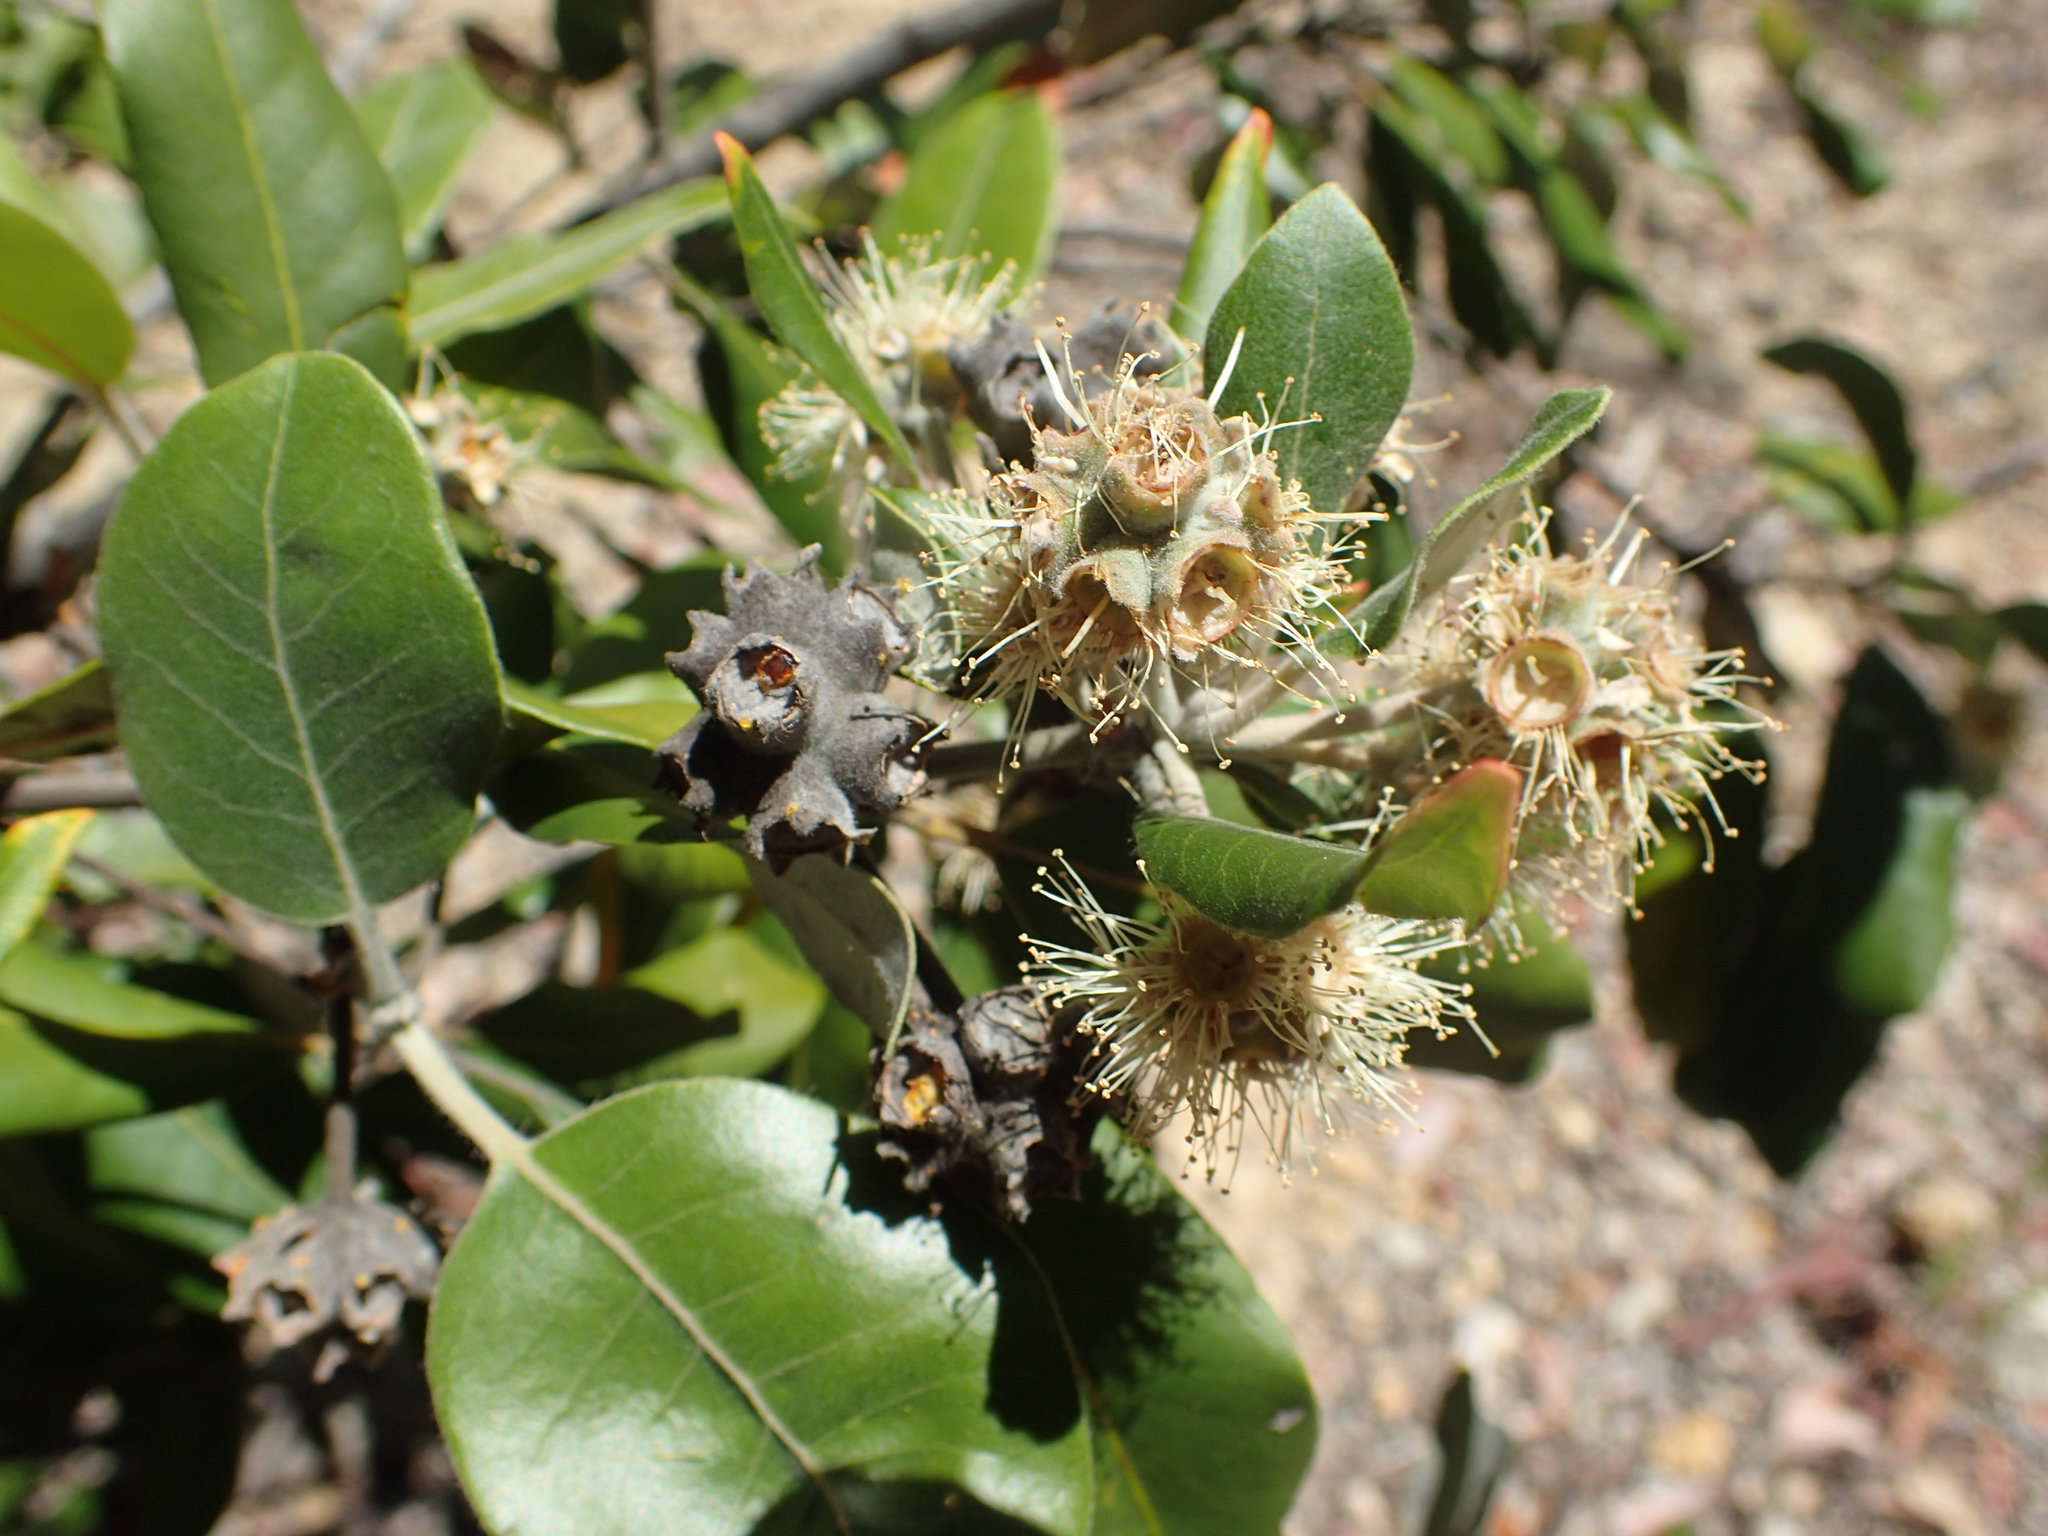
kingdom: Plantae
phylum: Tracheophyta
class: Magnoliopsida
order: Myrtales
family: Myrtaceae
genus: Syncarpia
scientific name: Syncarpia glomulifera
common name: Turpentine tree
